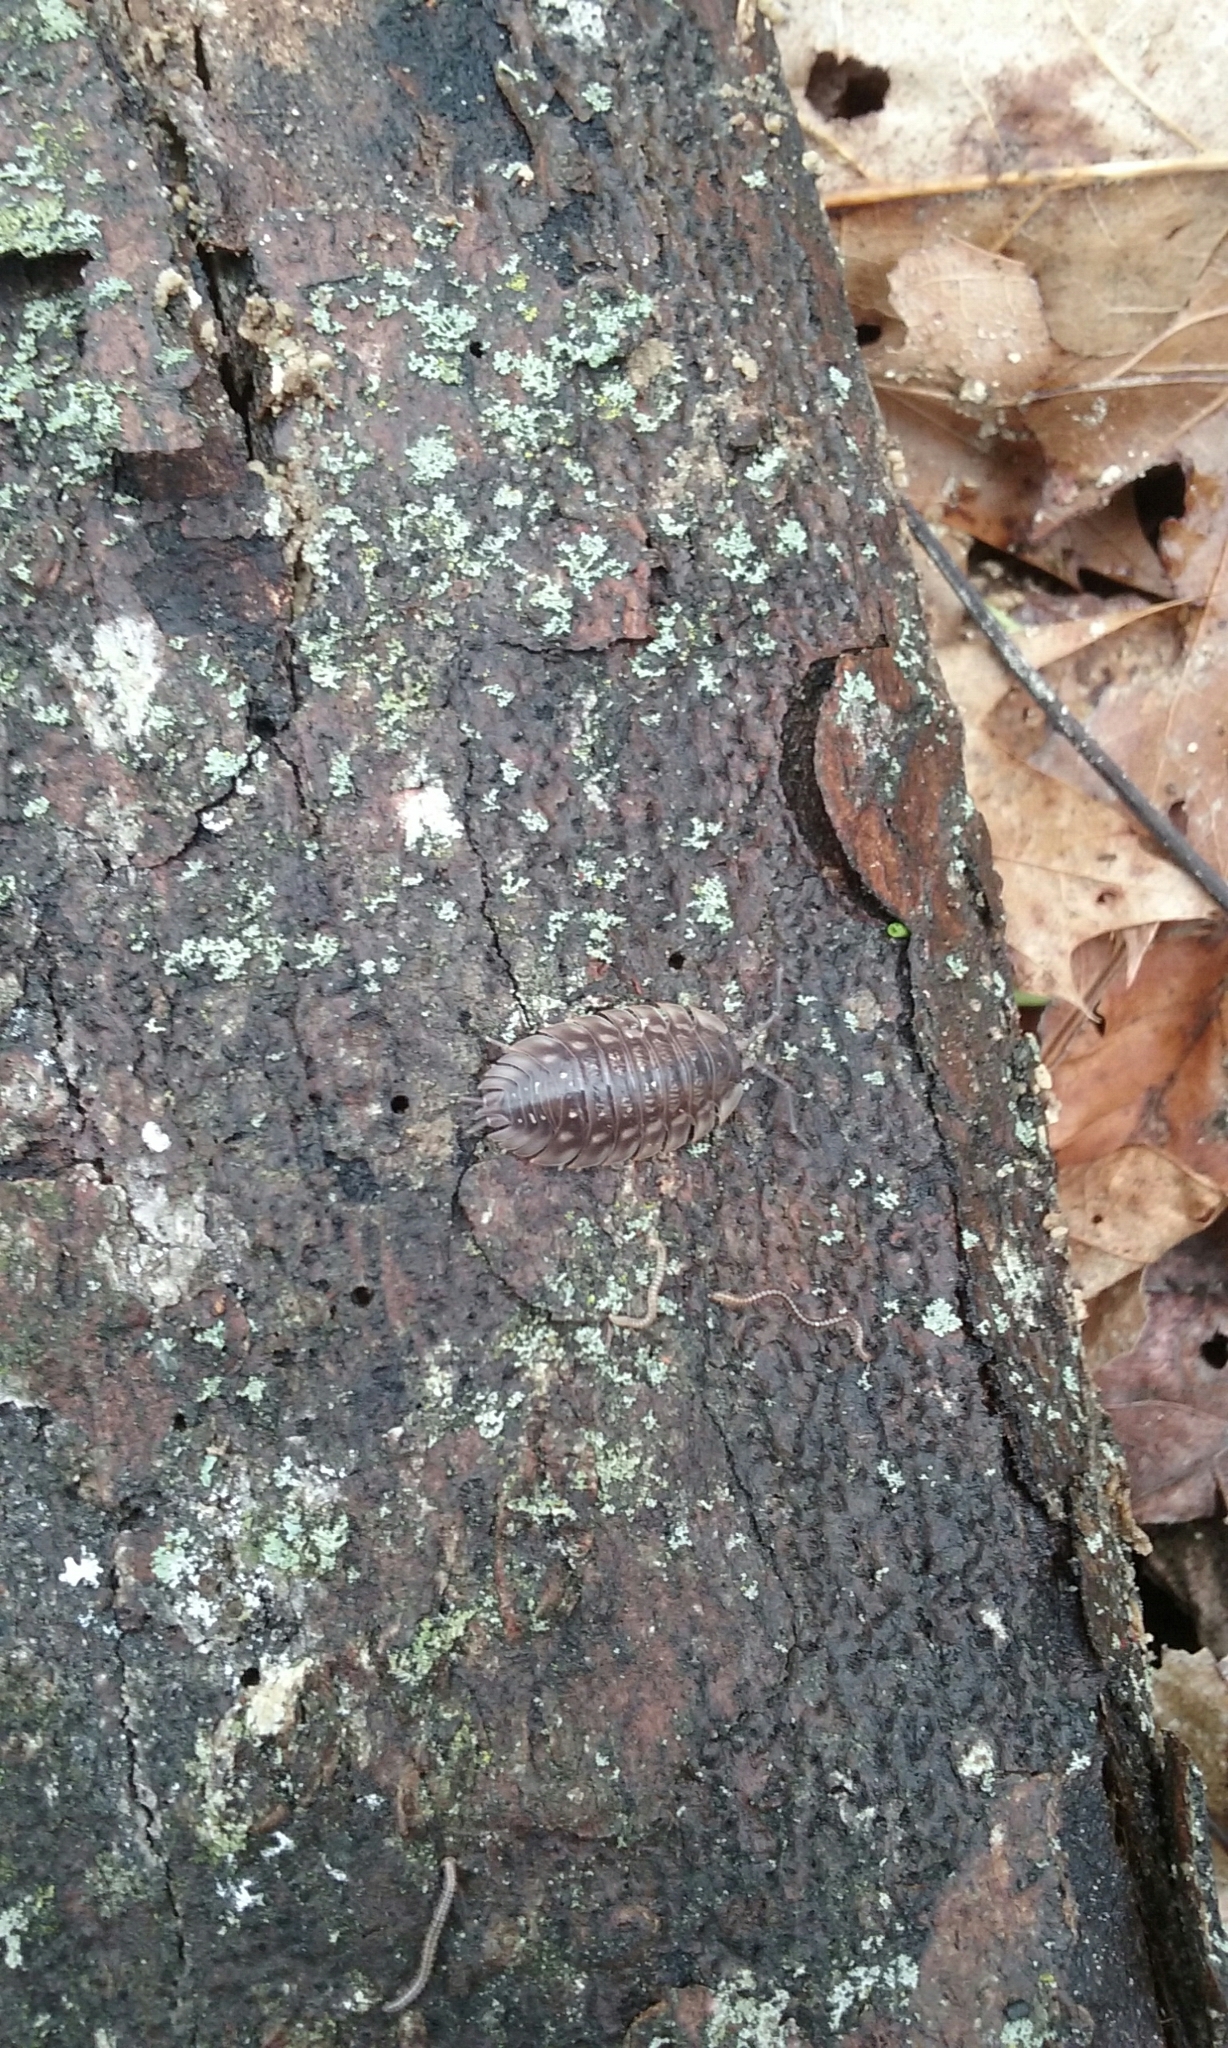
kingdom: Animalia
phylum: Arthropoda
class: Malacostraca
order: Isopoda
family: Oniscidae
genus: Oniscus
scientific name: Oniscus asellus
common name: Common shiny woodlouse
